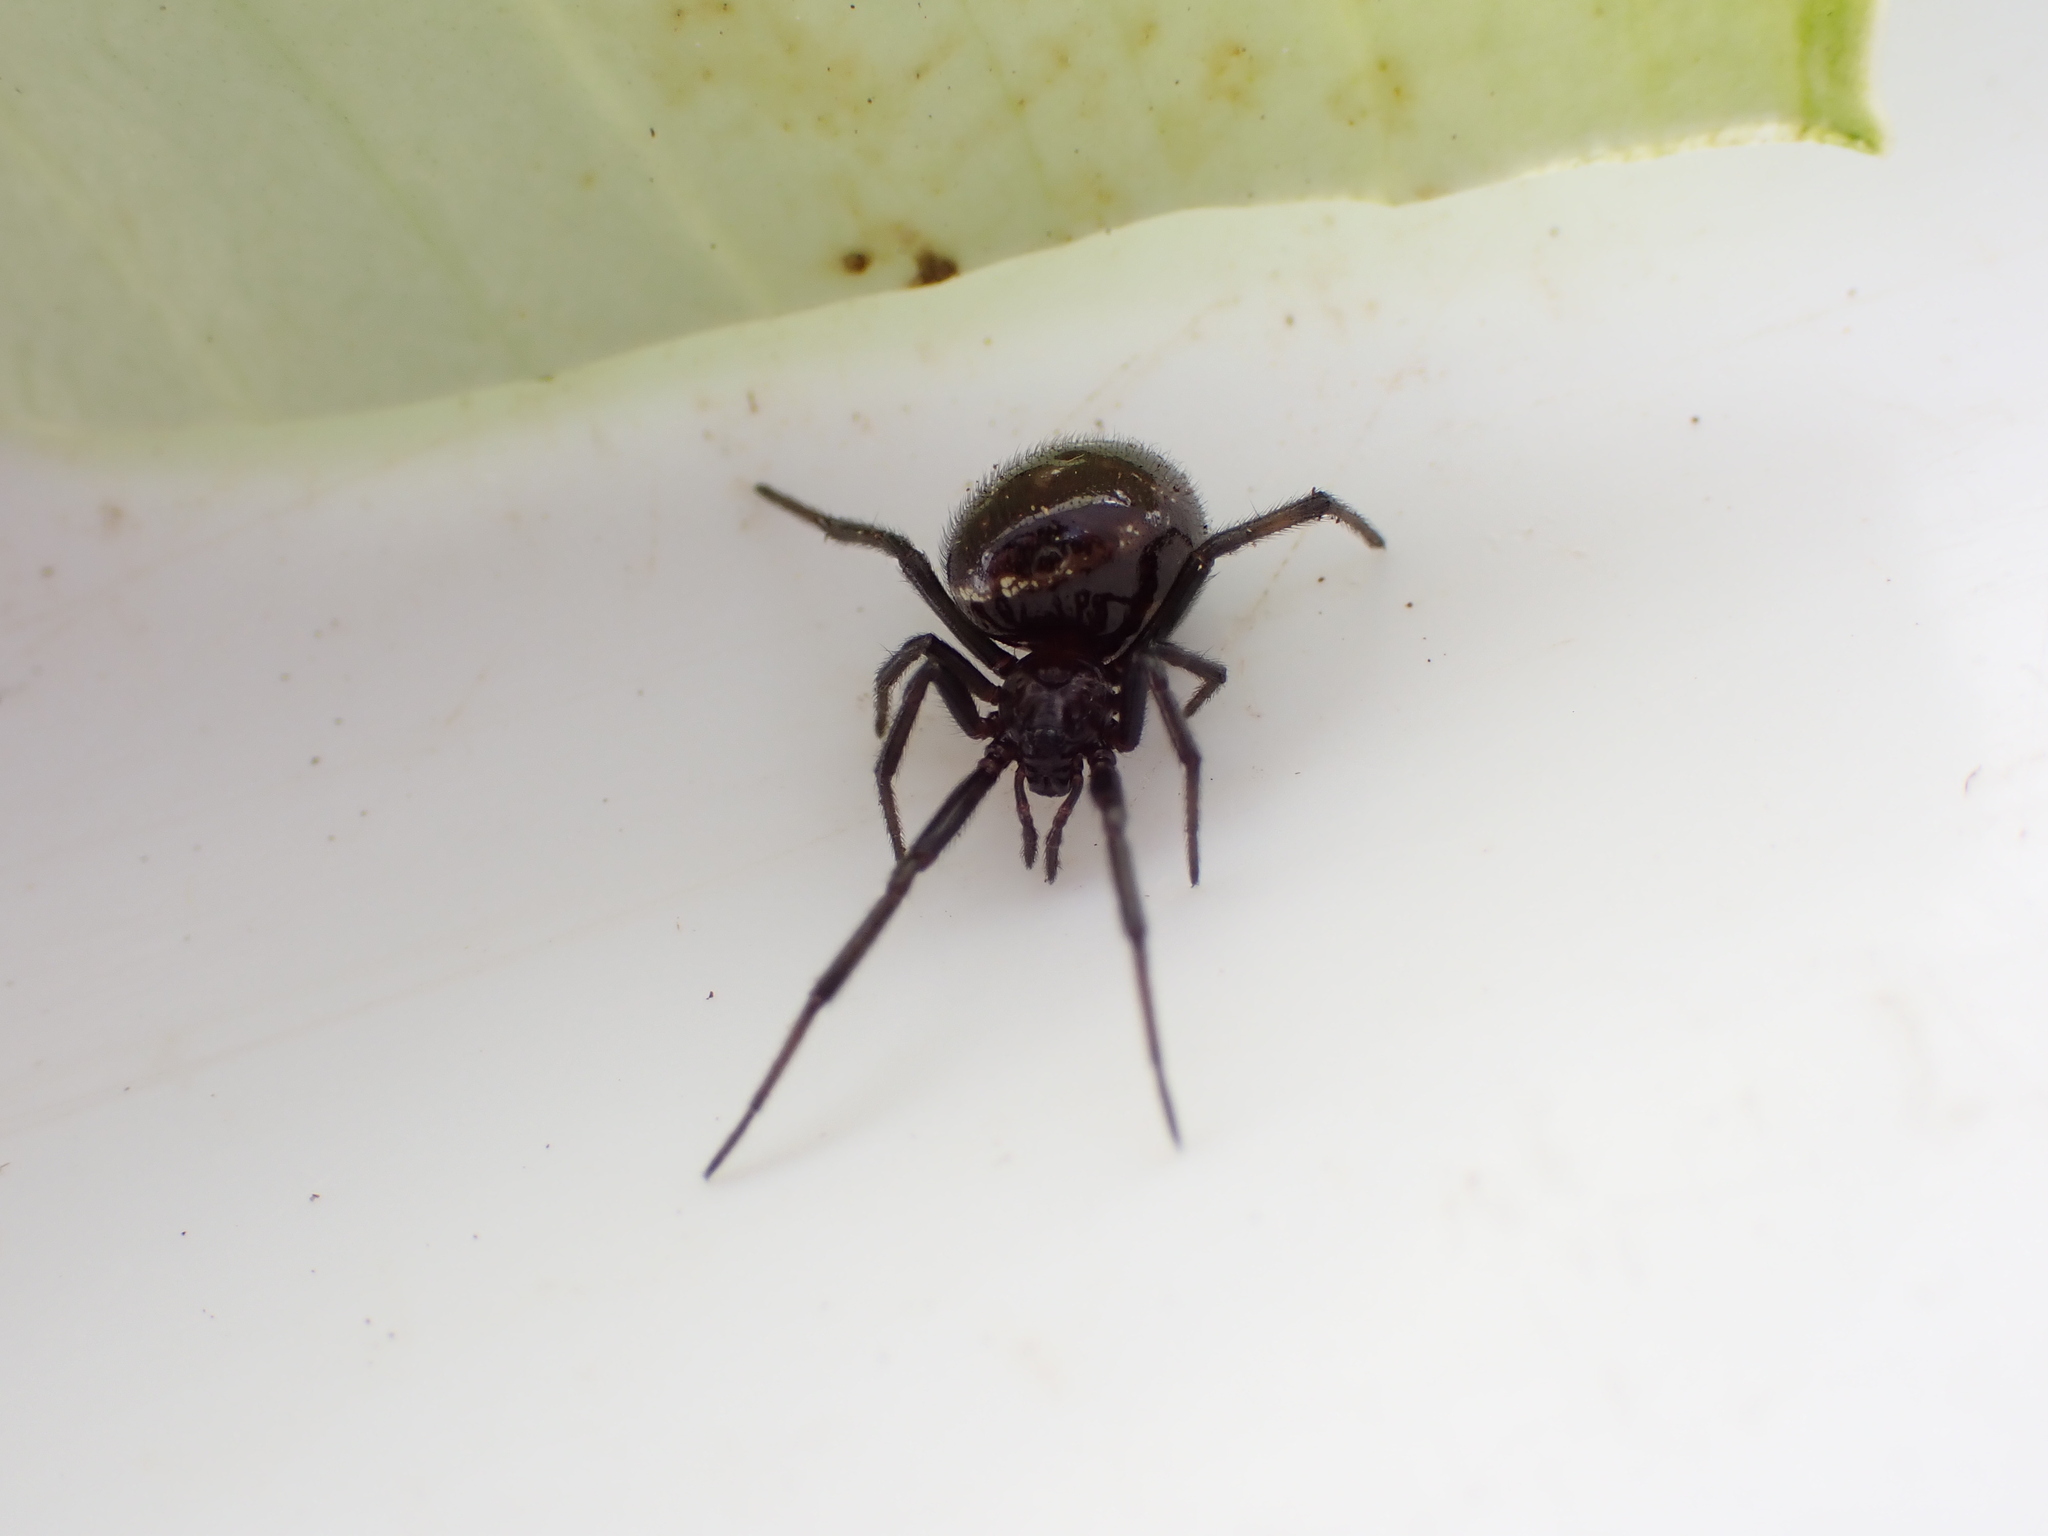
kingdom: Animalia
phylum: Arthropoda
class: Arachnida
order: Araneae
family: Theridiidae
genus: Steatoda
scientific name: Steatoda capensis
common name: Cobweb weaver
